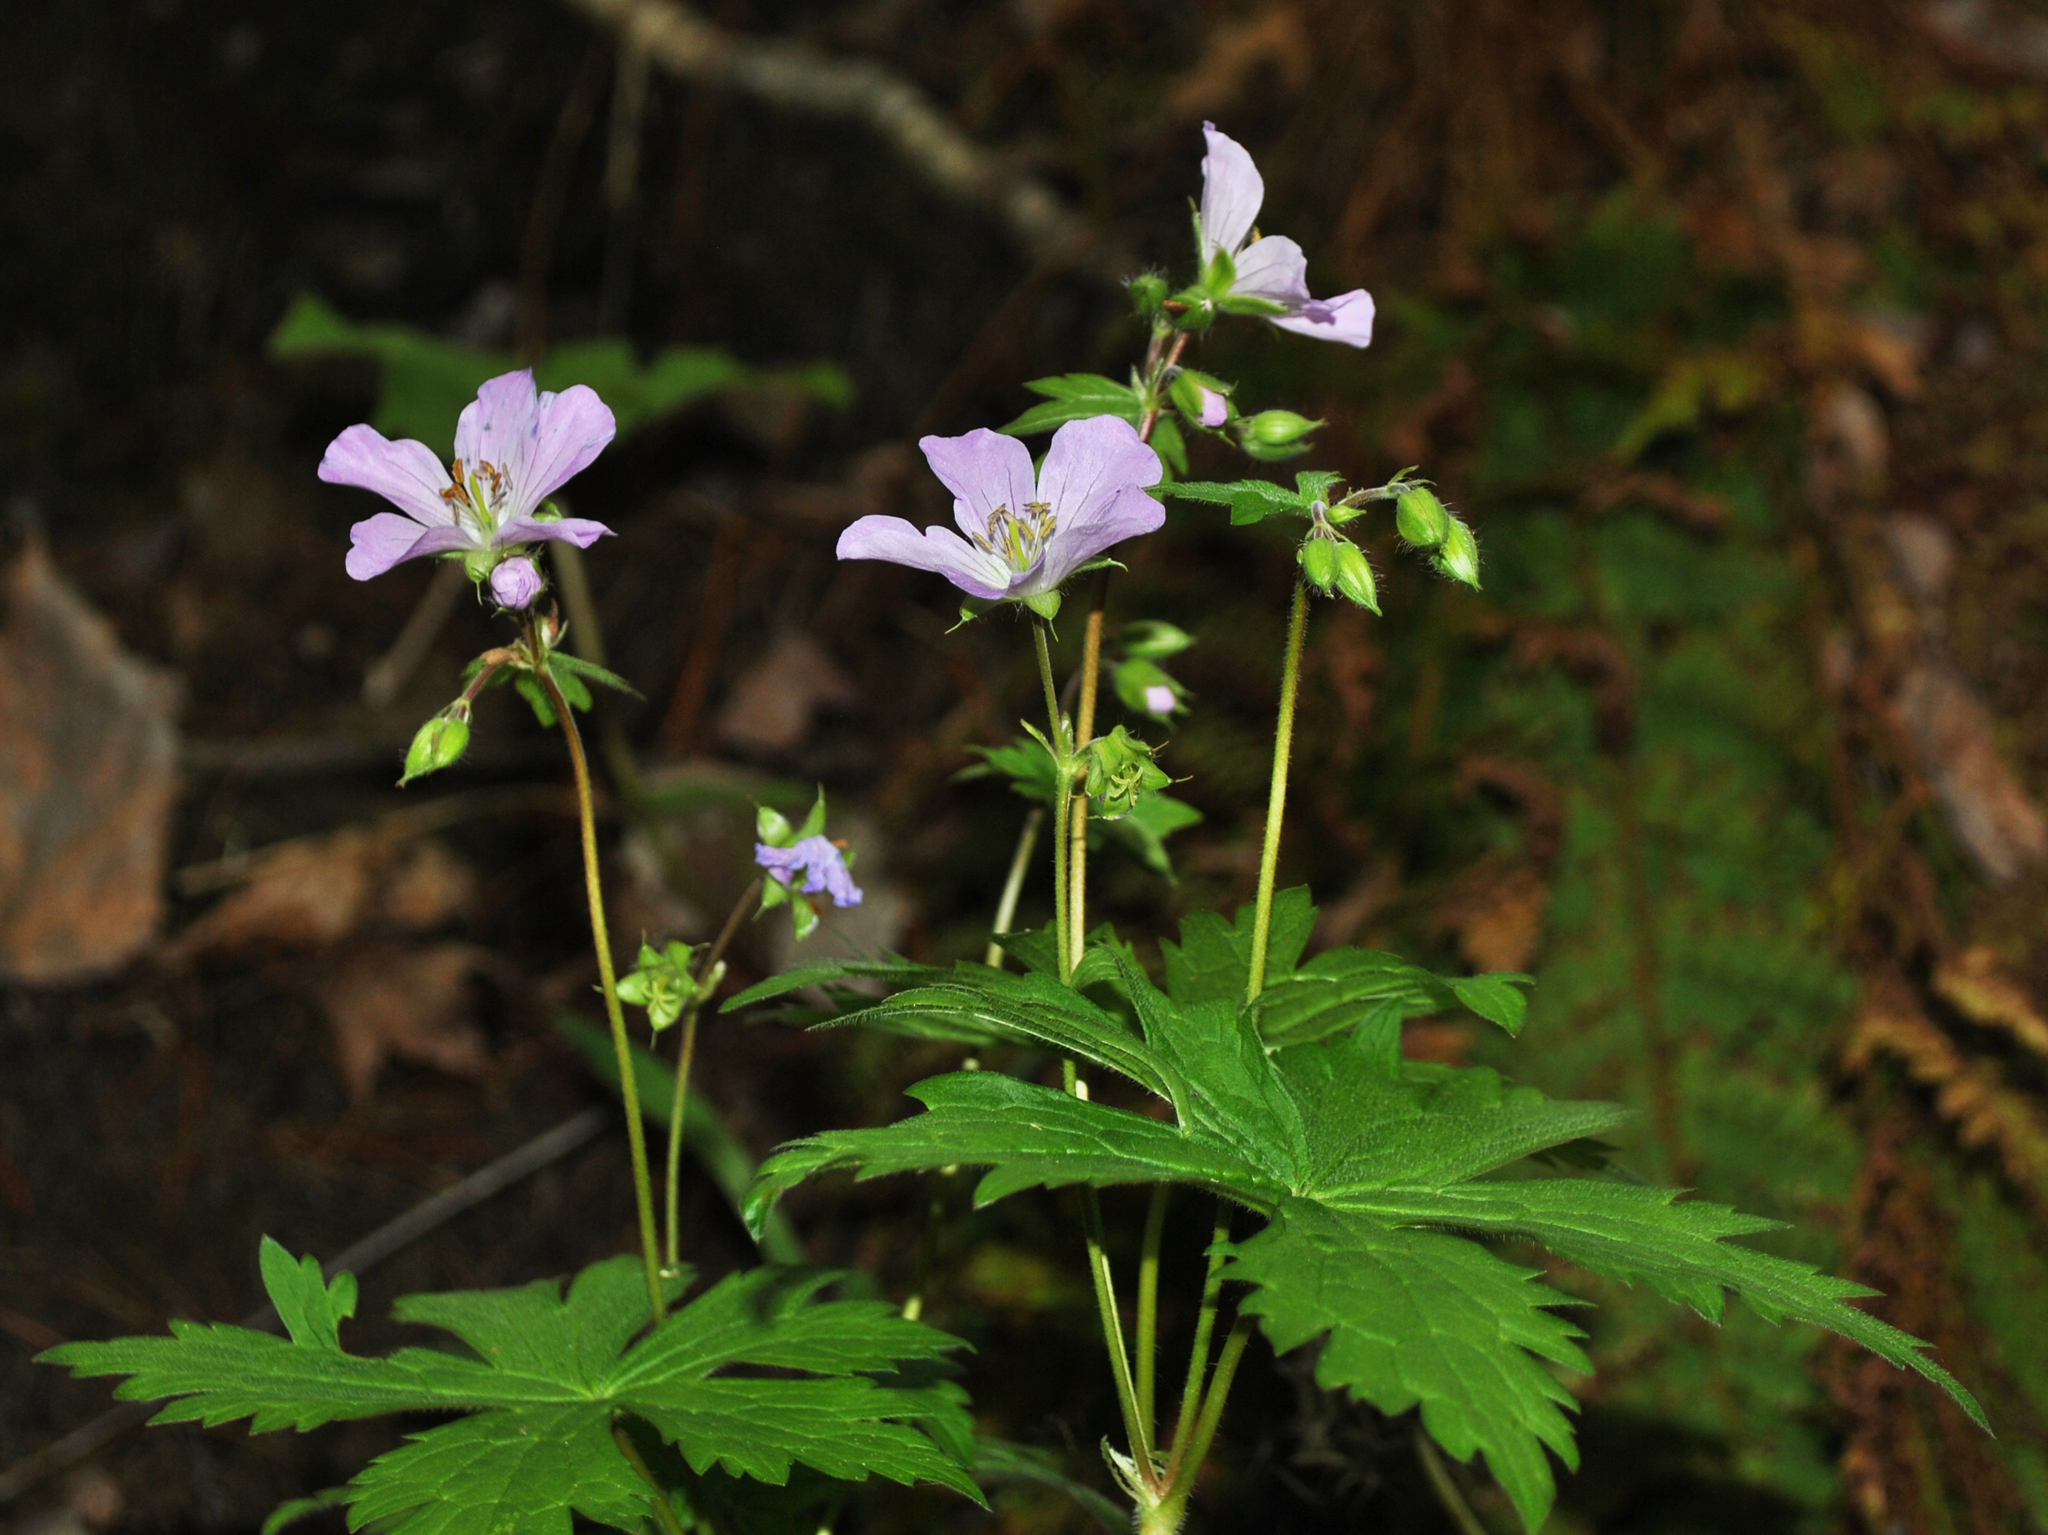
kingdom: Plantae
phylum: Tracheophyta
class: Magnoliopsida
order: Geraniales
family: Geraniaceae
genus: Geranium
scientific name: Geranium maculatum
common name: Spotted geranium
